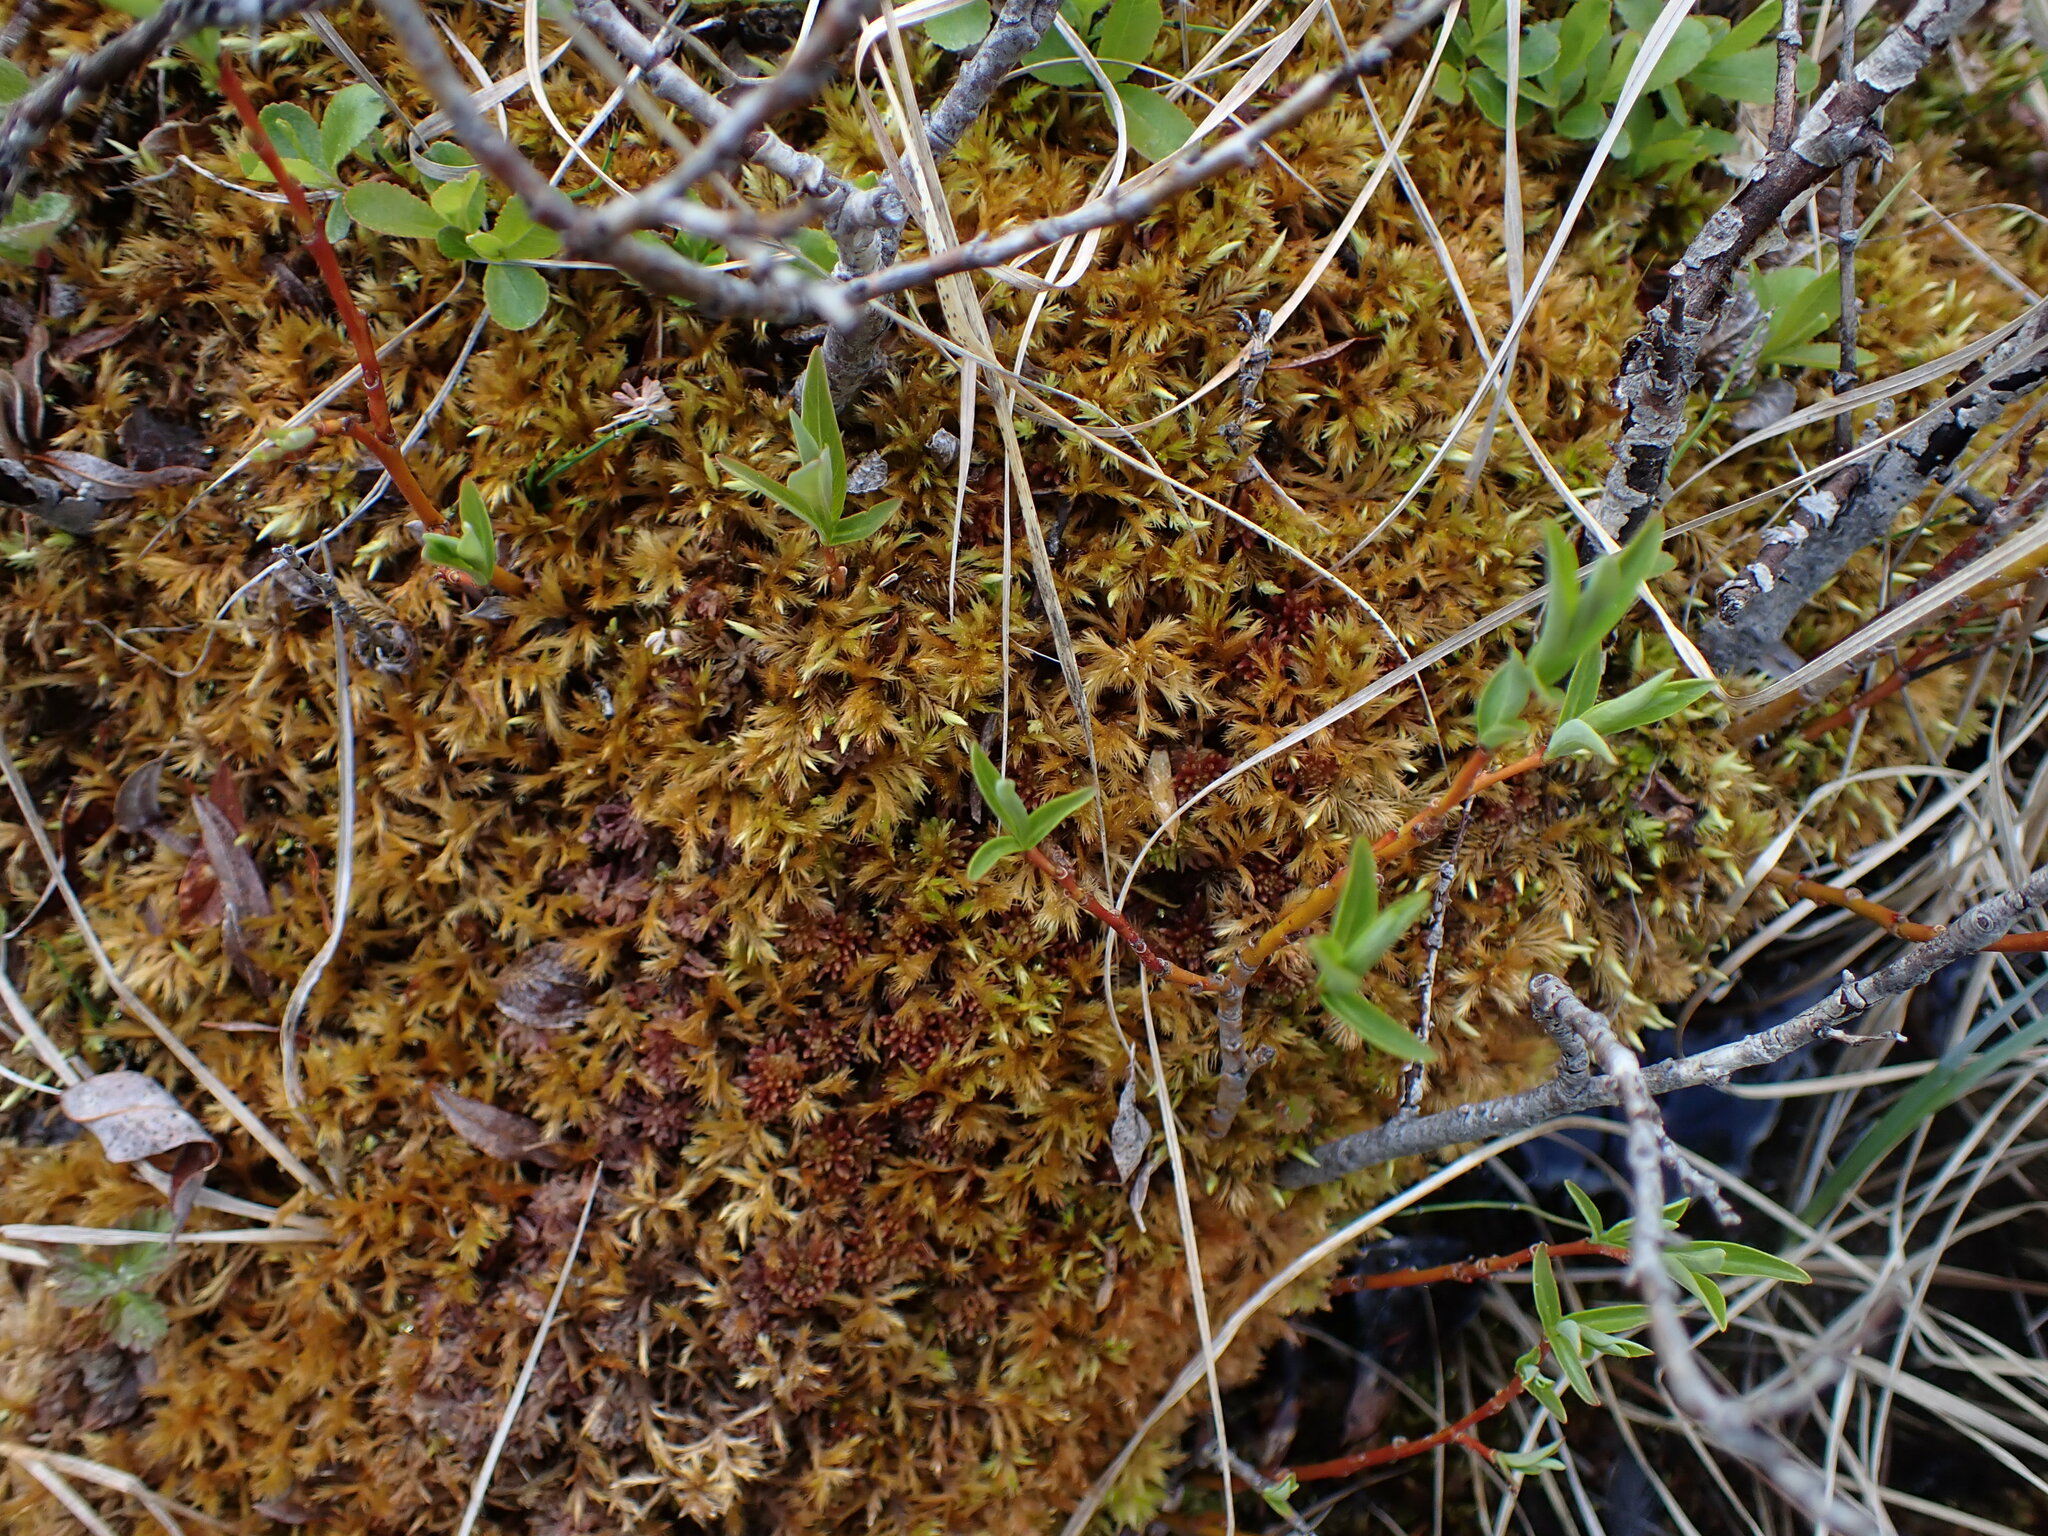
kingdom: Plantae
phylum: Bryophyta
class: Bryopsida
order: Hypnales
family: Amblystegiaceae
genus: Tomentypnum
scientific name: Tomentypnum nitens
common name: Golden fuzzy fen moss
